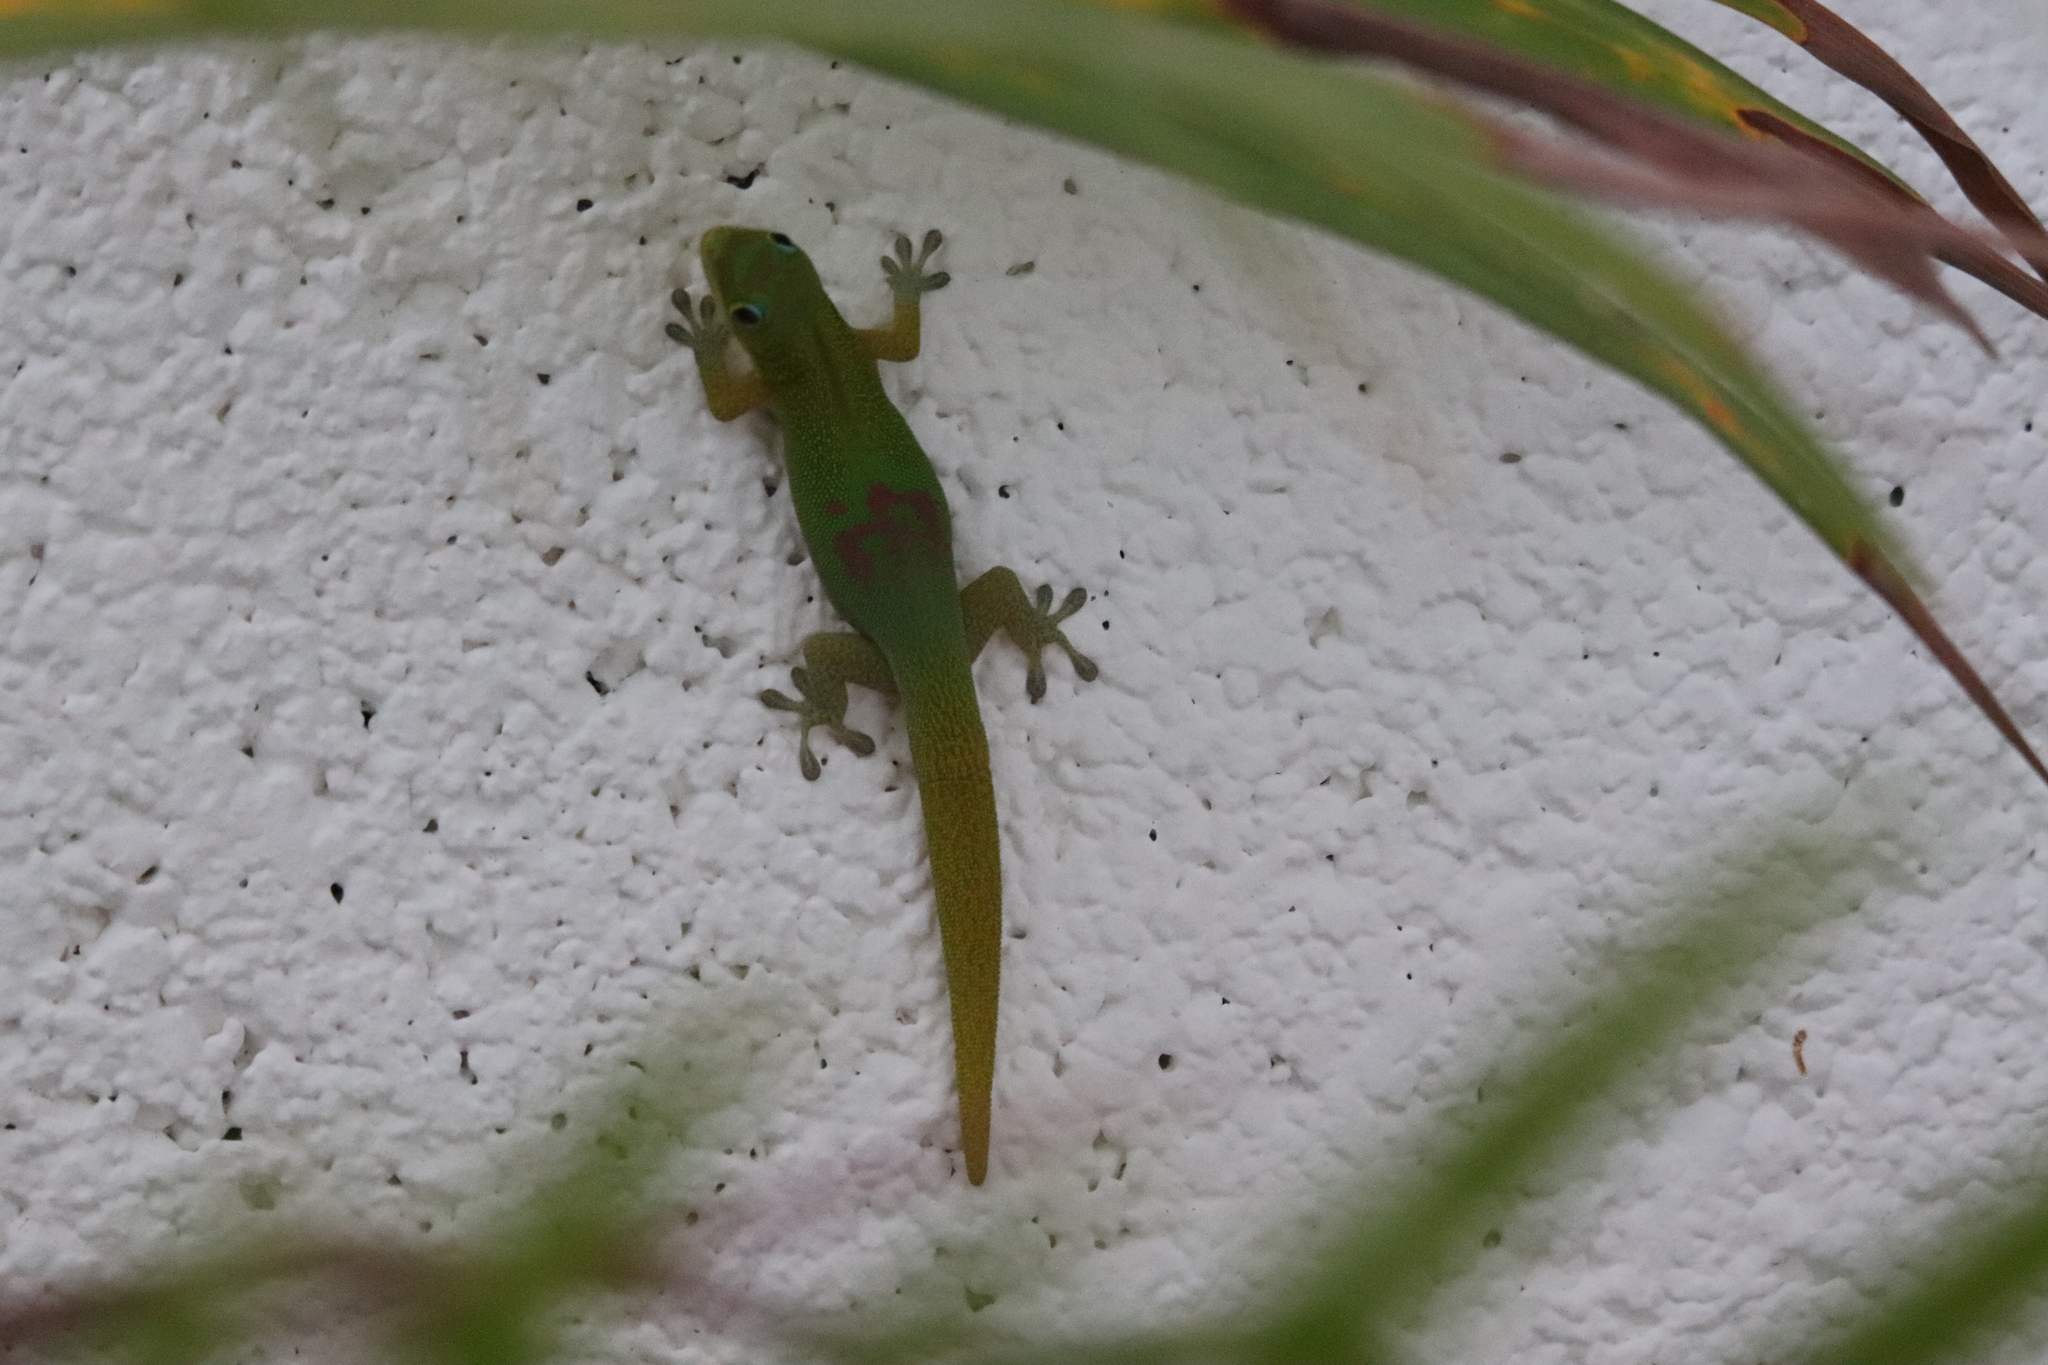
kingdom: Animalia
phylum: Chordata
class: Squamata
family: Gekkonidae
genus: Phelsuma
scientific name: Phelsuma laticauda
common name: Gold dust day gecko
